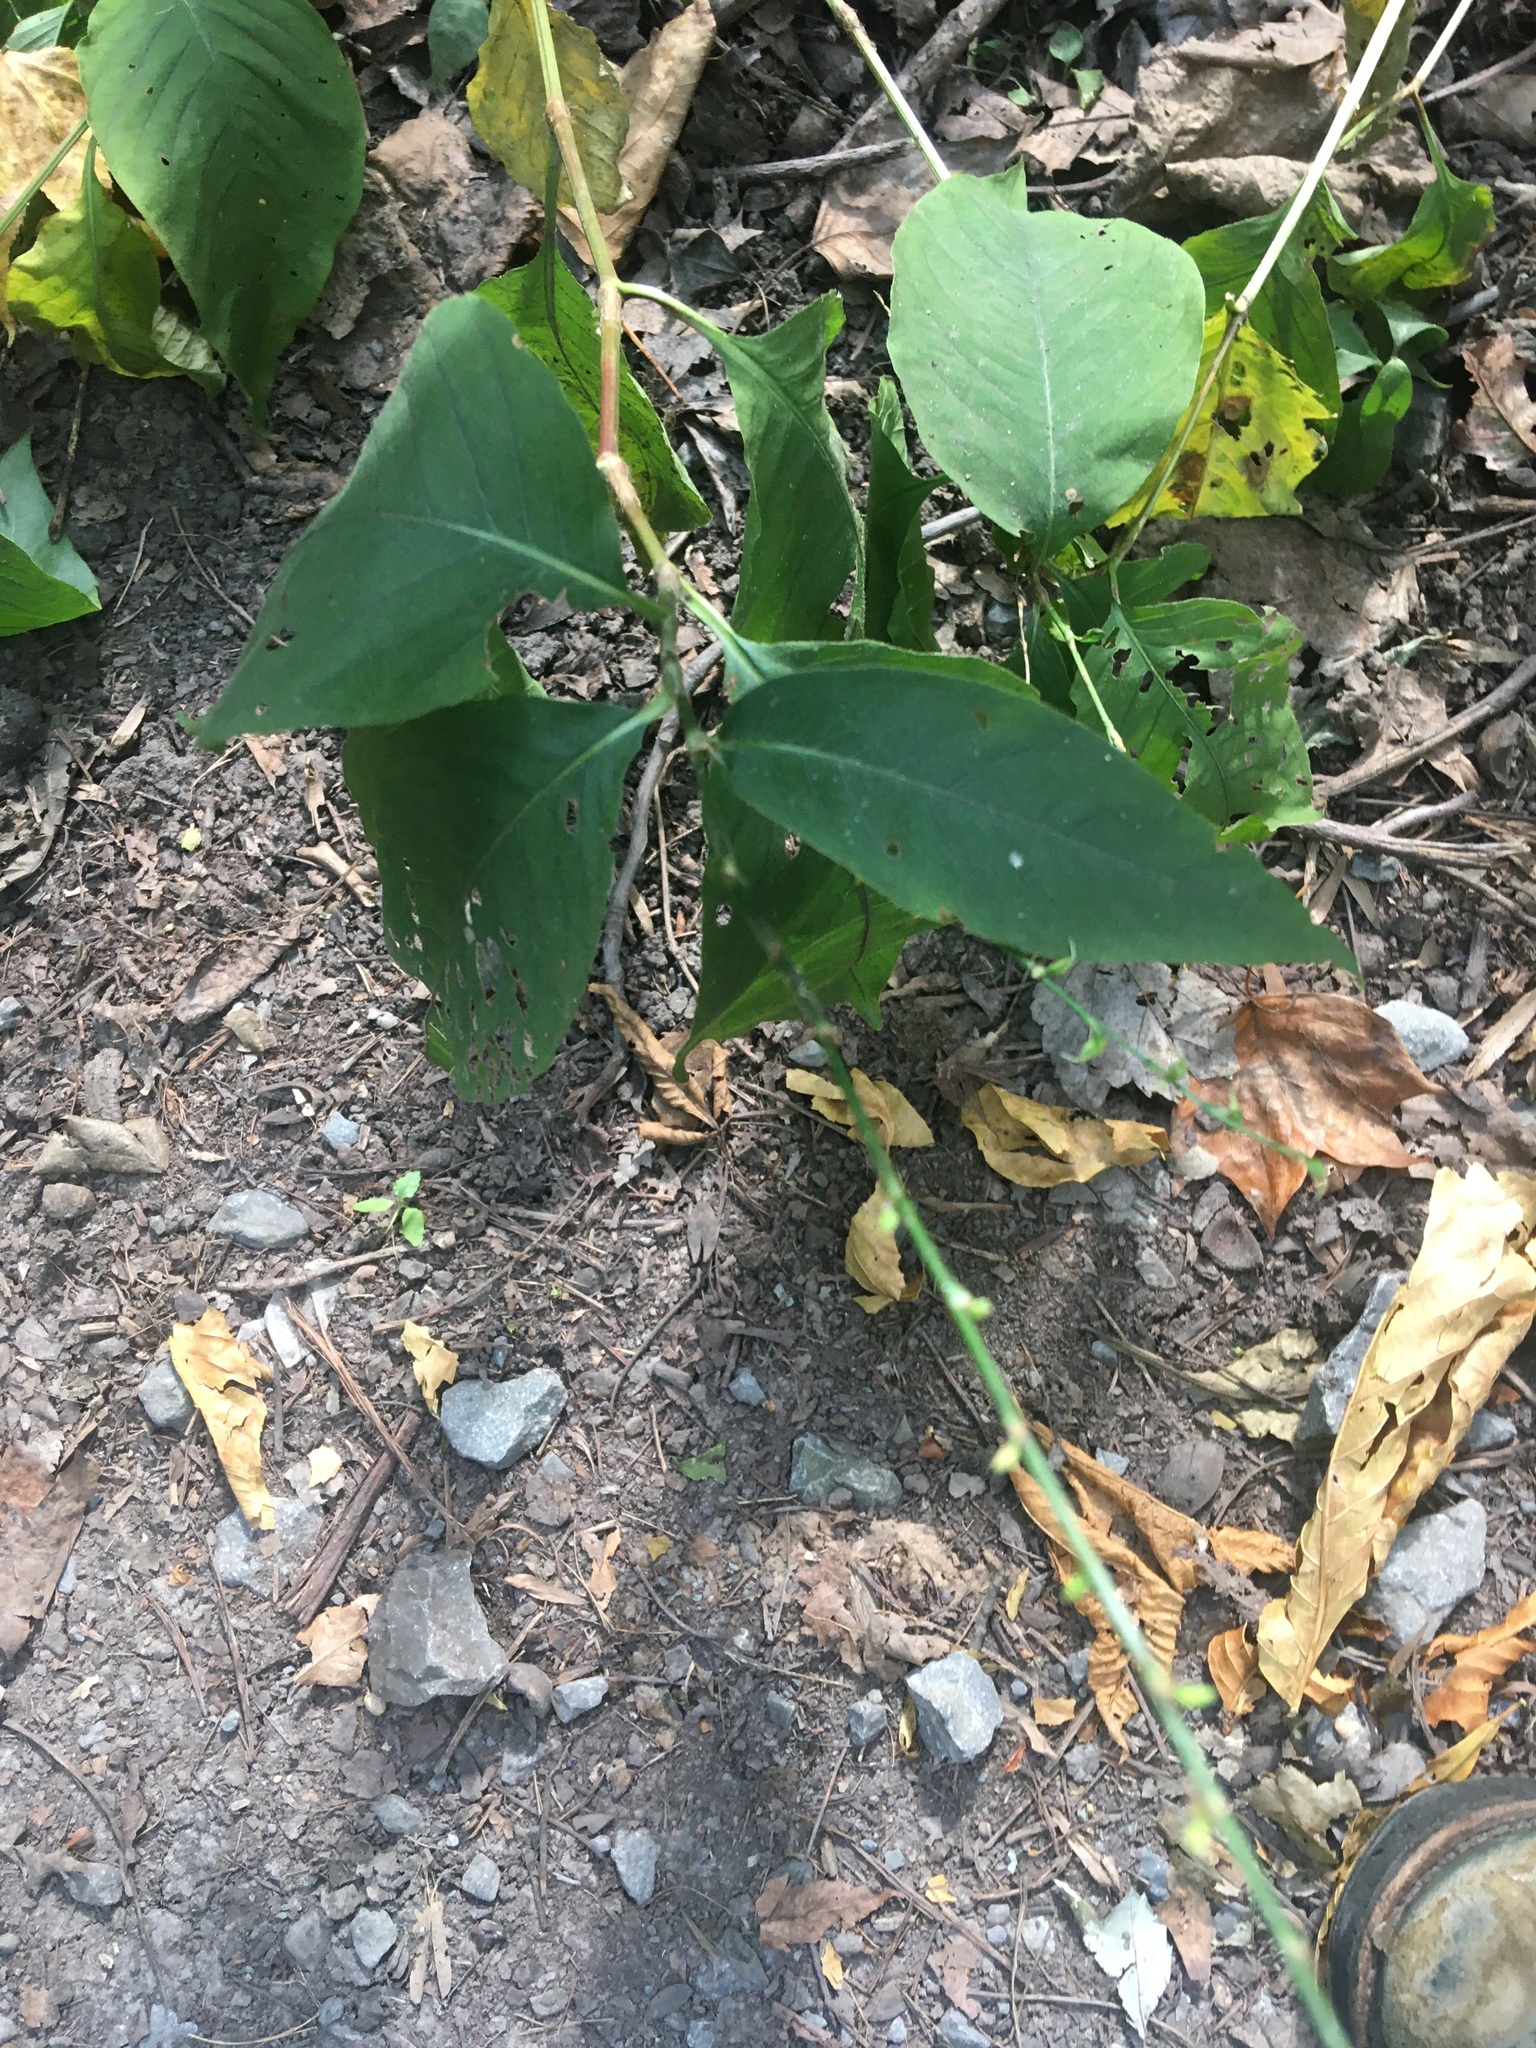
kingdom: Plantae
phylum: Tracheophyta
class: Magnoliopsida
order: Caryophyllales
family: Polygonaceae
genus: Persicaria
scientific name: Persicaria virginiana
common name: Jumpseed
